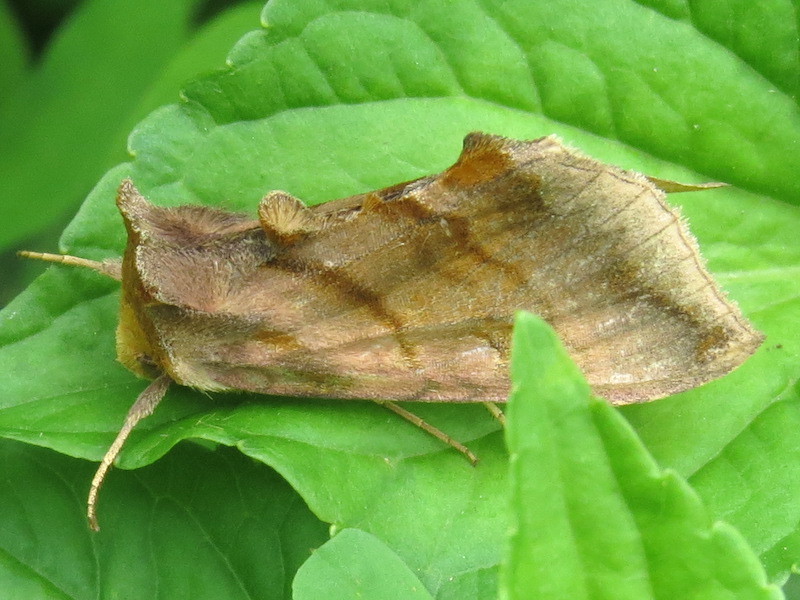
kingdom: Animalia
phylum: Arthropoda
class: Insecta
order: Lepidoptera
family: Noctuidae
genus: Allagrapha
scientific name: Allagrapha aerea
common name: Unspotted looper moth
